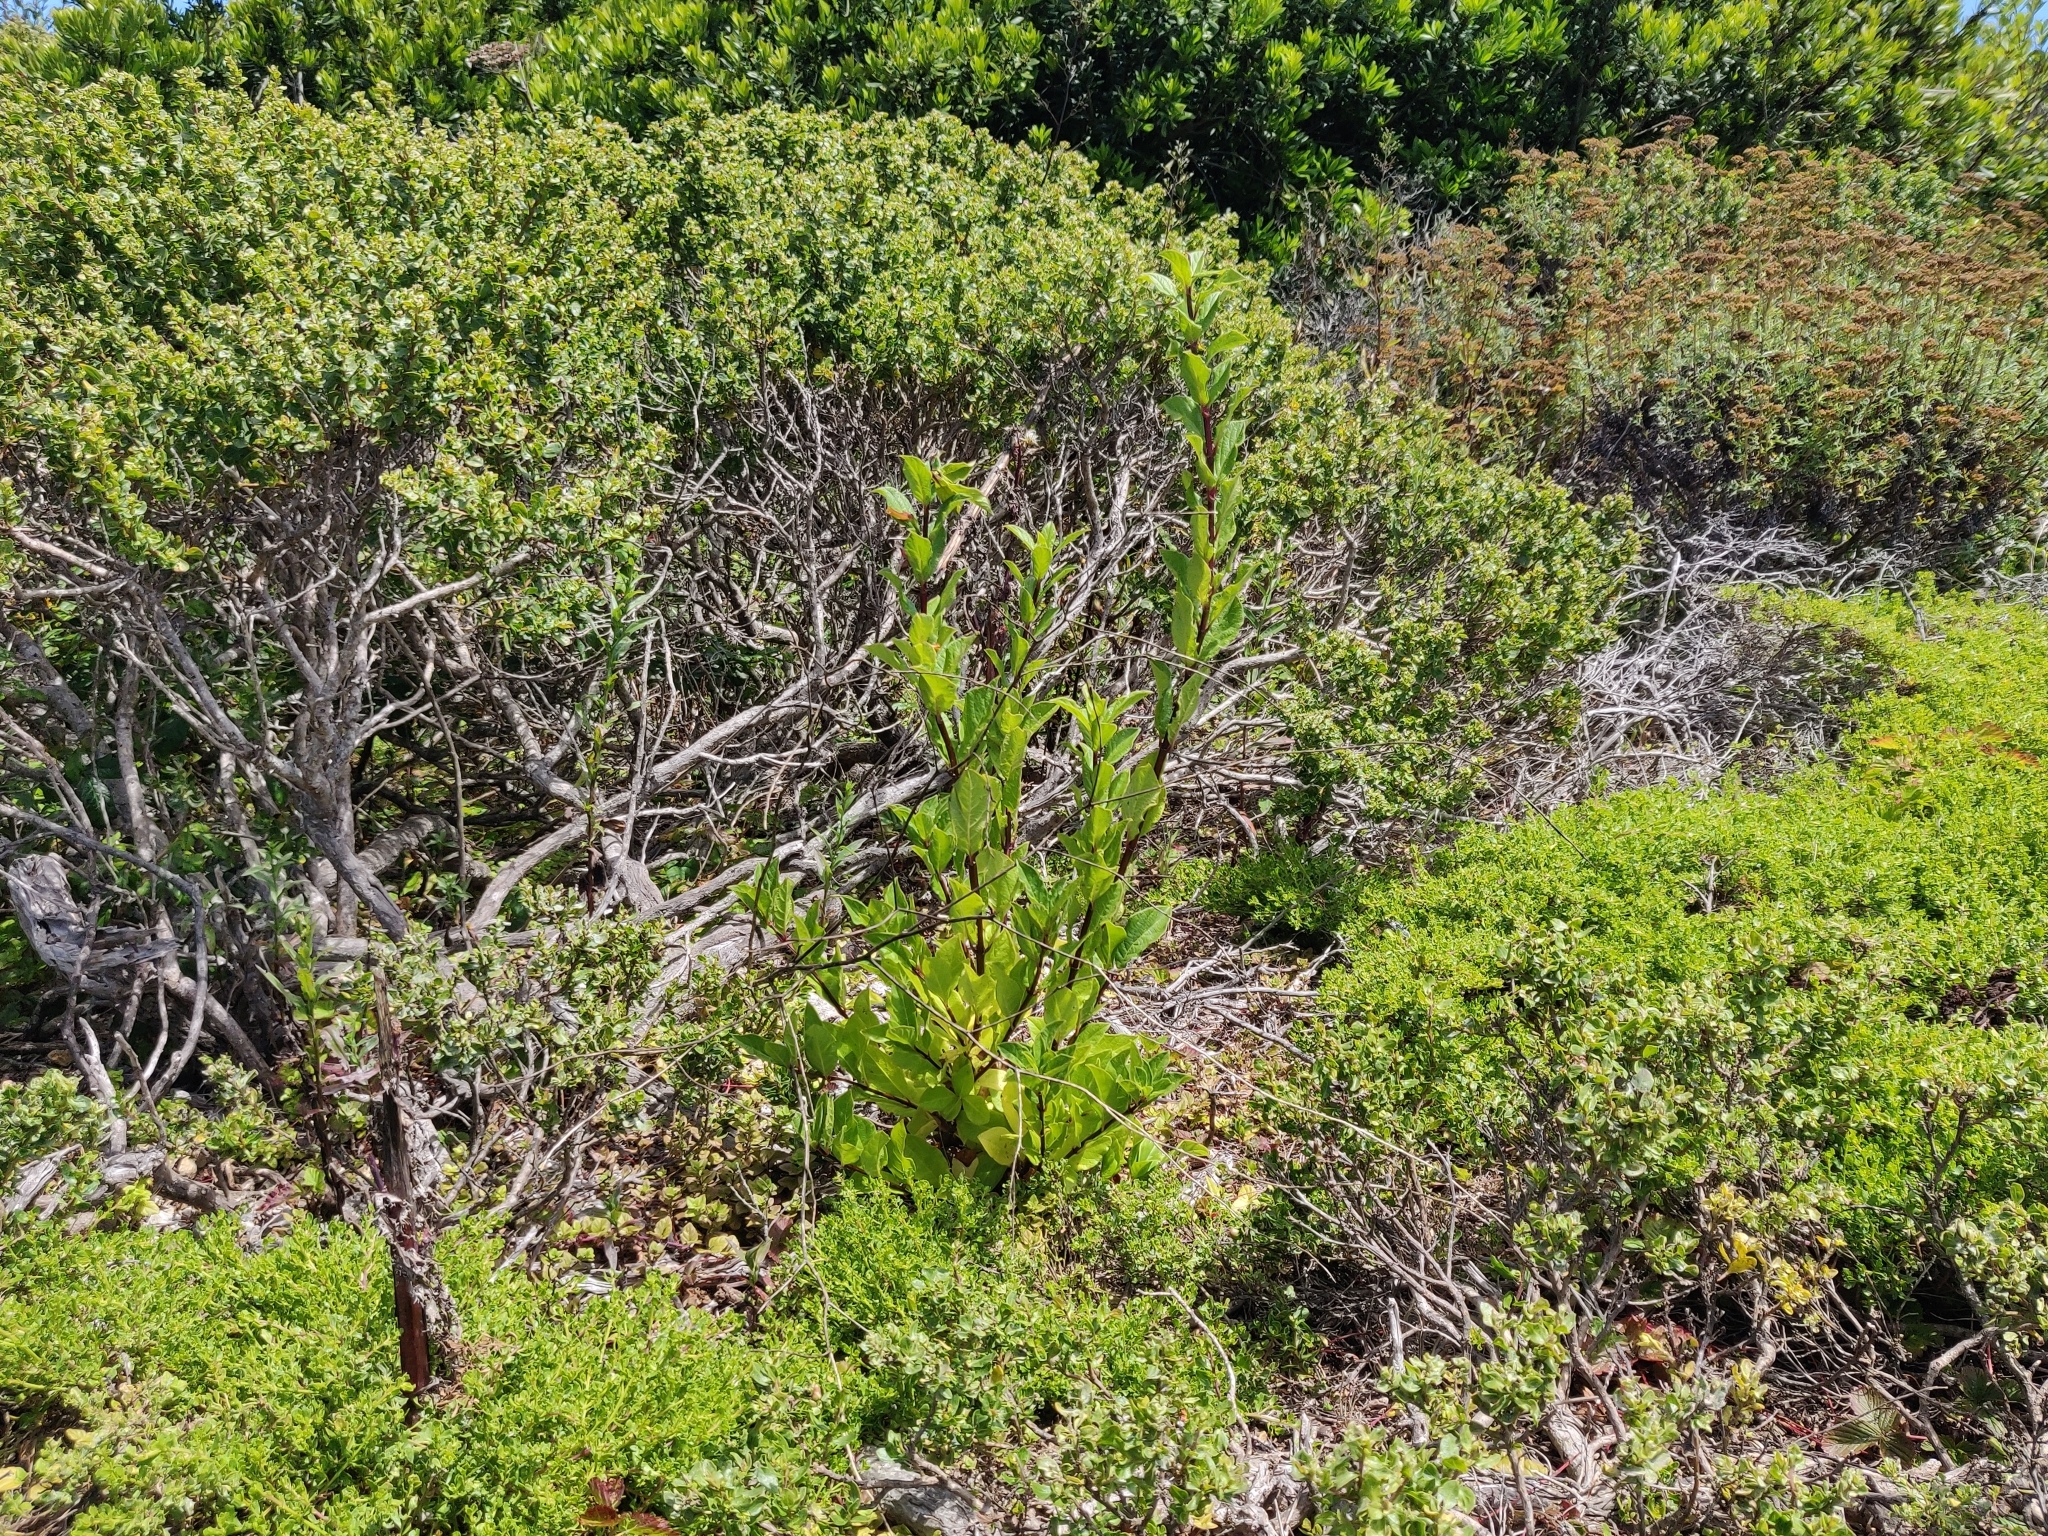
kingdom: Plantae
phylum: Tracheophyta
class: Magnoliopsida
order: Dipsacales
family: Caprifoliaceae
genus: Lonicera
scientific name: Lonicera involucrata
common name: Californian honeysuckle
